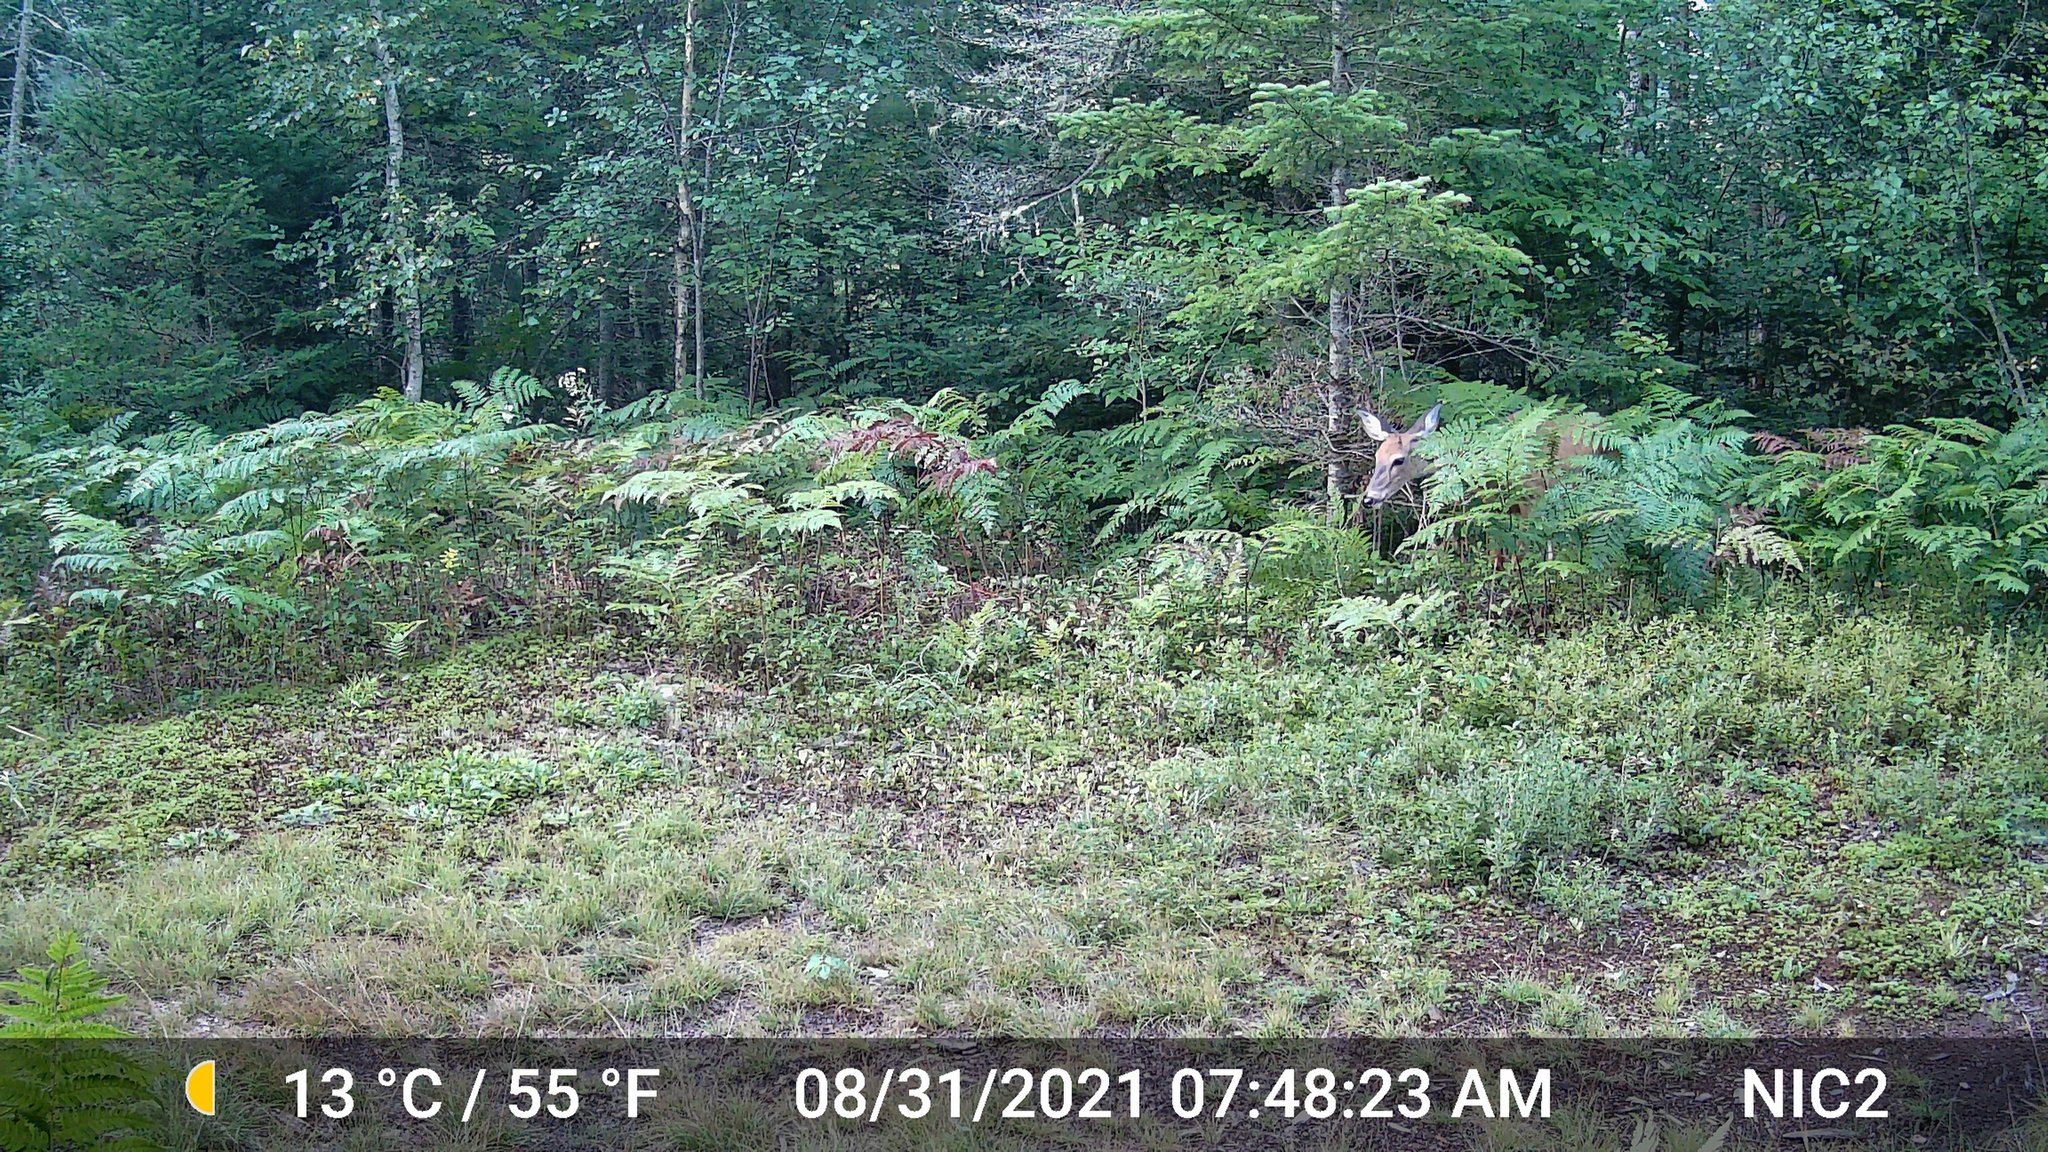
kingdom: Animalia
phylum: Chordata
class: Mammalia
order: Artiodactyla
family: Cervidae
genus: Odocoileus
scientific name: Odocoileus virginianus
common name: White-tailed deer
